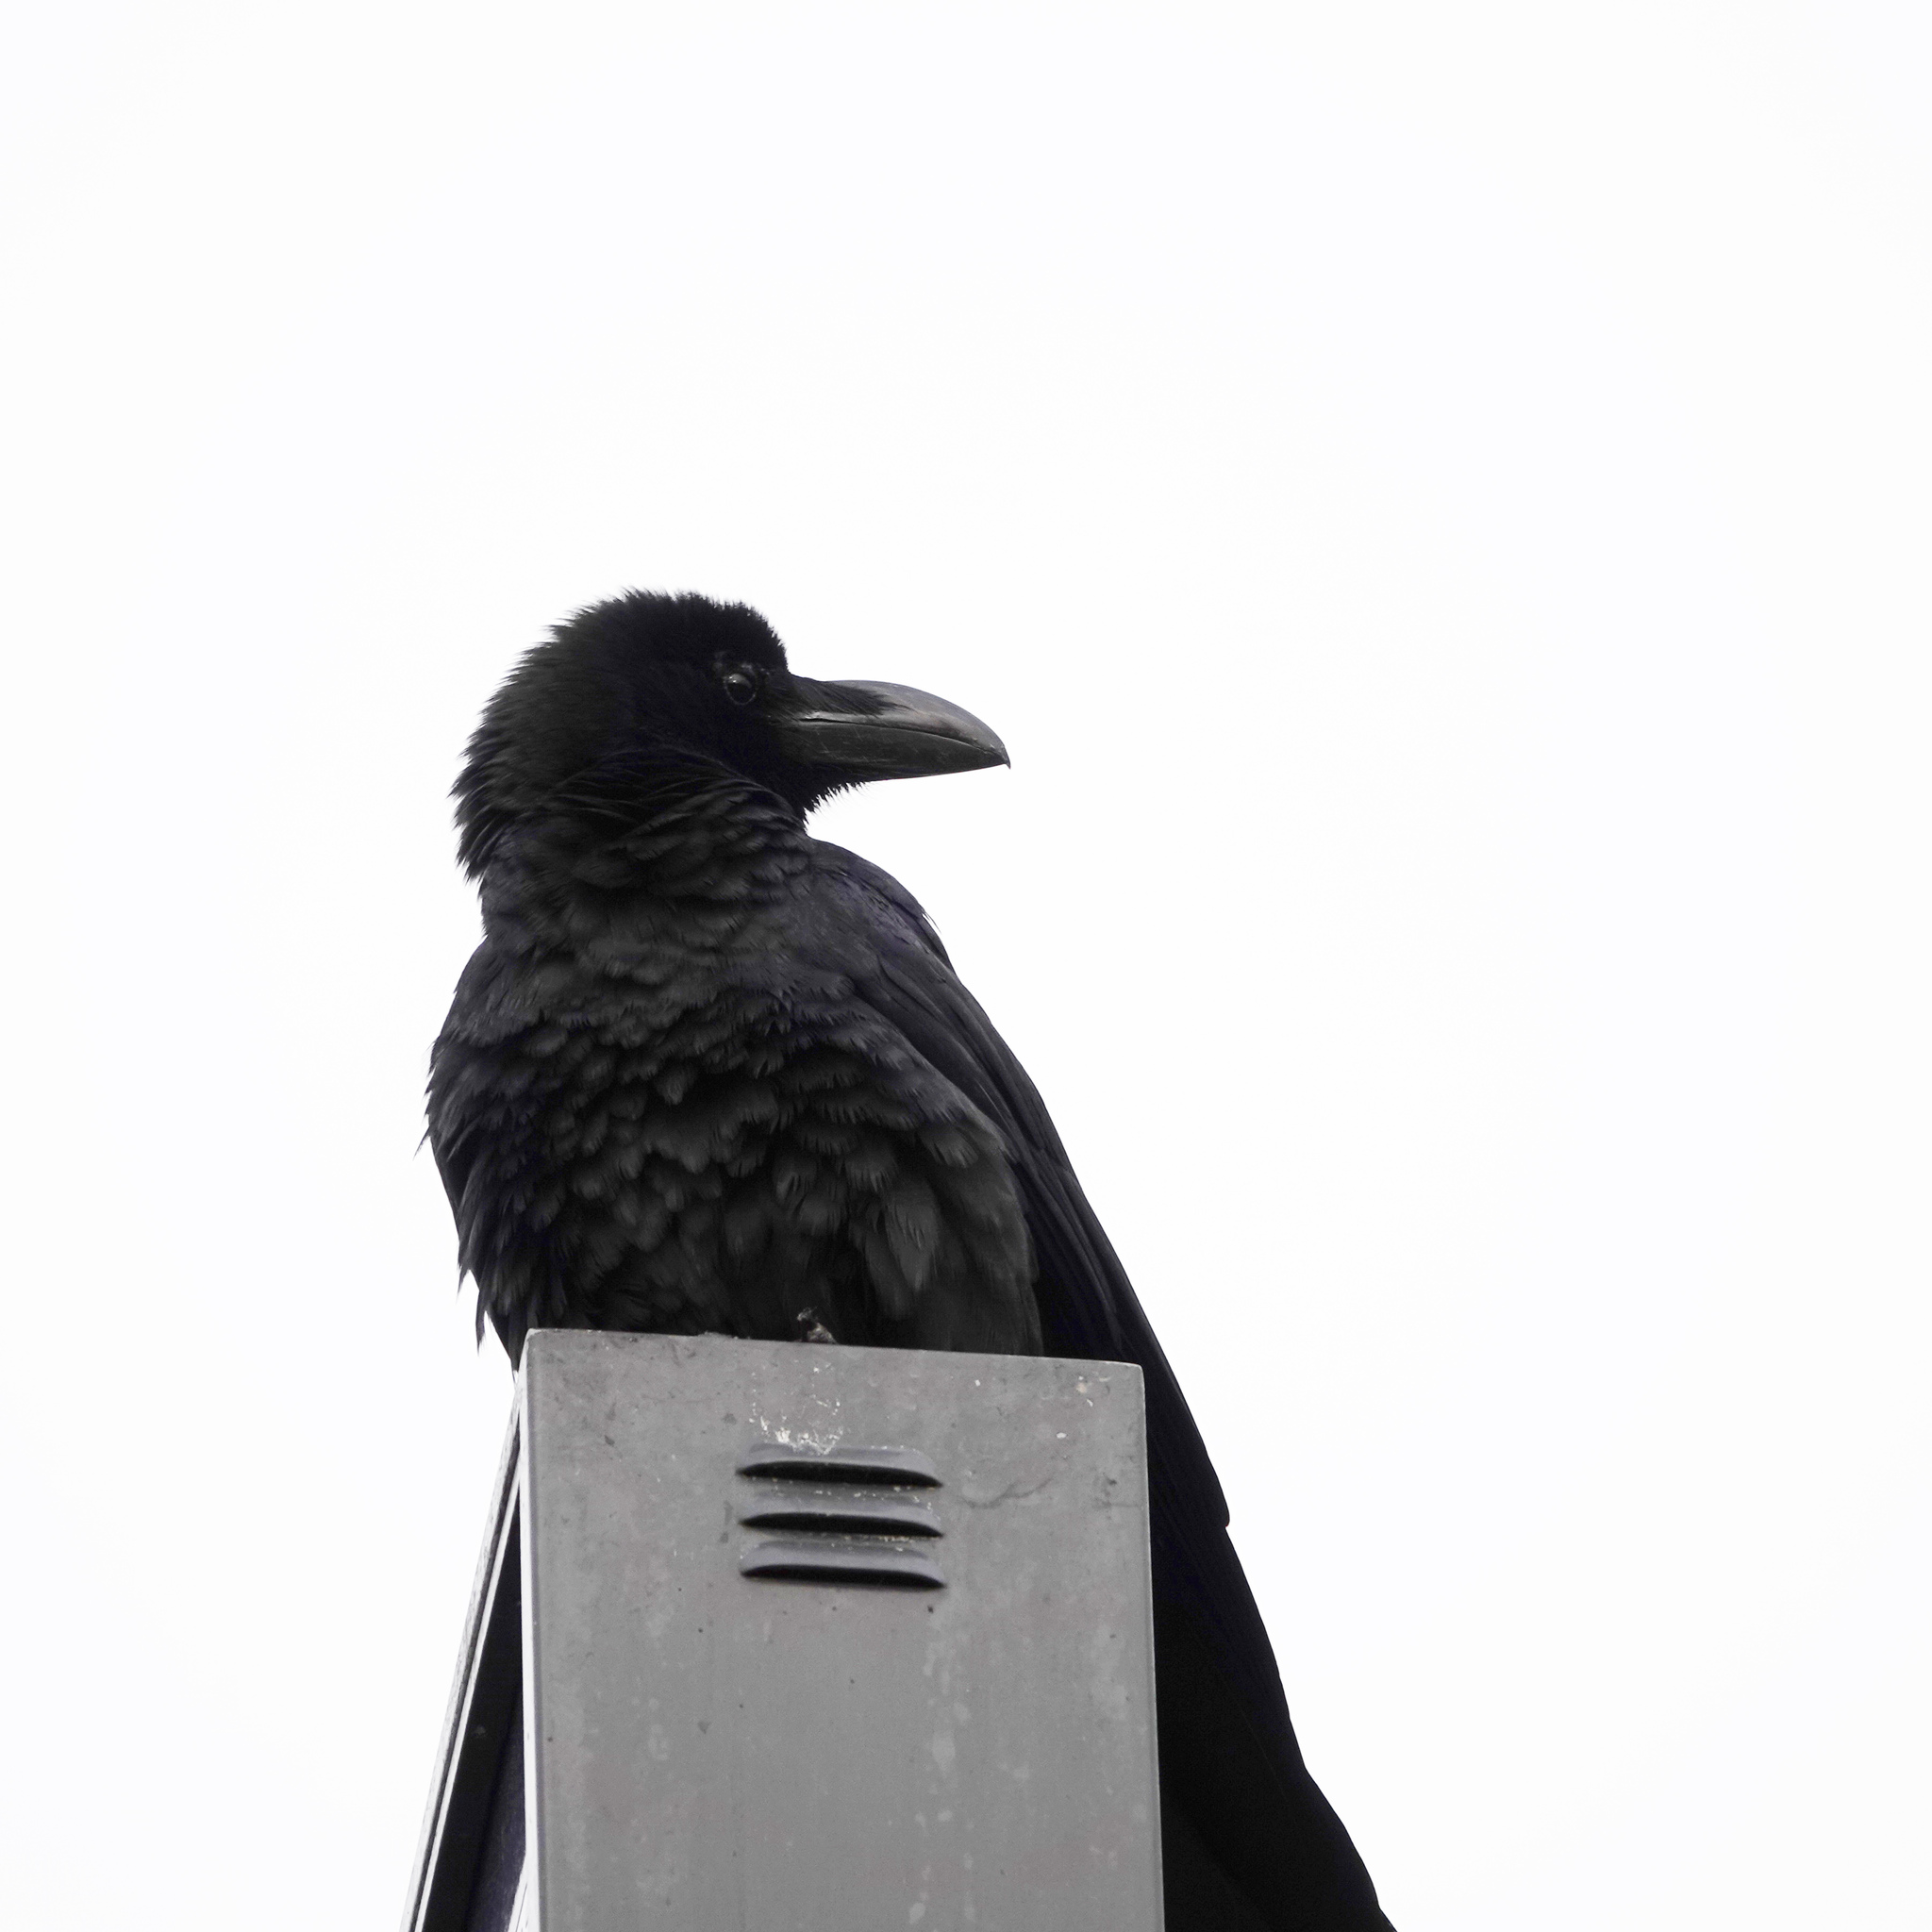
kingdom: Animalia
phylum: Chordata
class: Aves
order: Passeriformes
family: Corvidae
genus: Corvus
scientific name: Corvus macrorhynchos
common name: Large-billed crow
